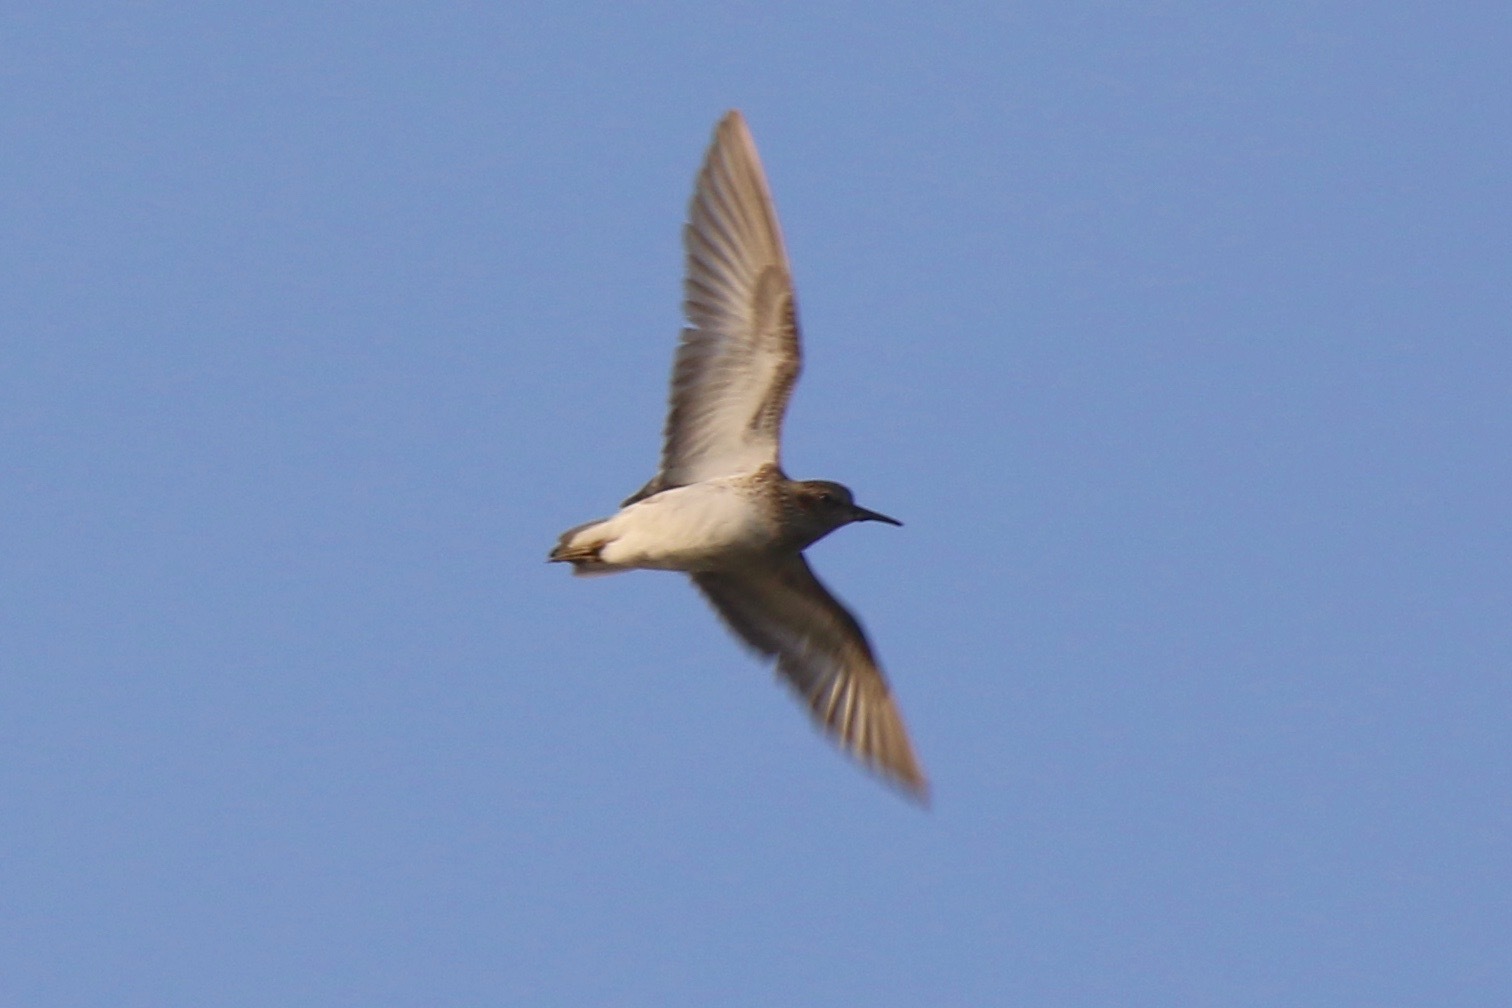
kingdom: Animalia
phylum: Chordata
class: Aves
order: Charadriiformes
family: Scolopacidae
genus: Calidris
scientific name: Calidris melanotos
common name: Pectoral sandpiper
